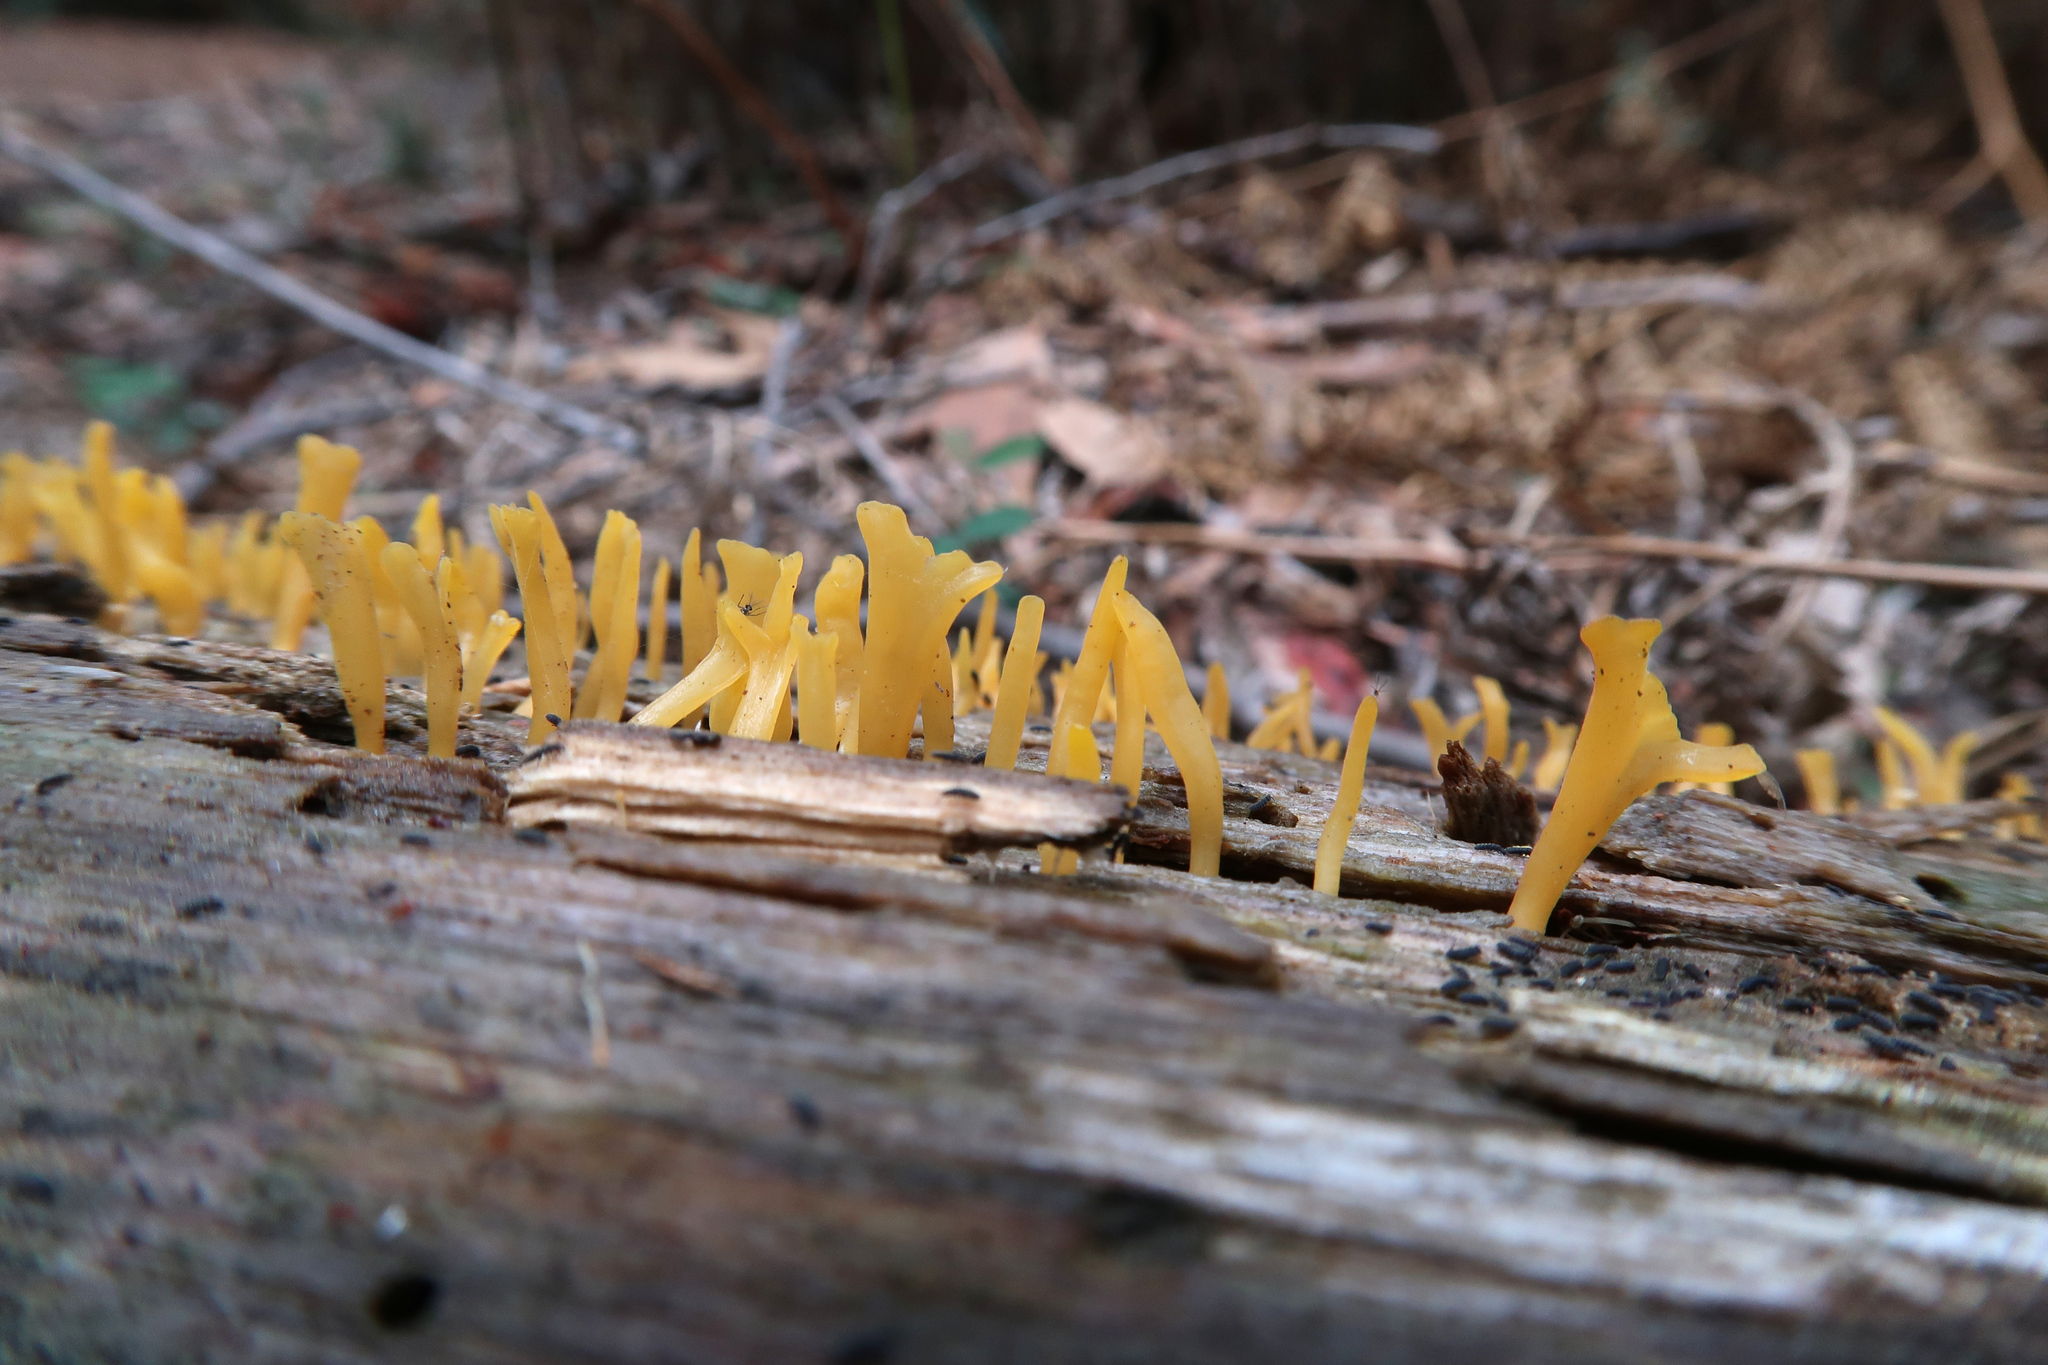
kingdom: Fungi
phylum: Basidiomycota
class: Dacrymycetes
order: Dacrymycetales
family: Dacrymycetaceae
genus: Calocera
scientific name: Calocera guepinioides
